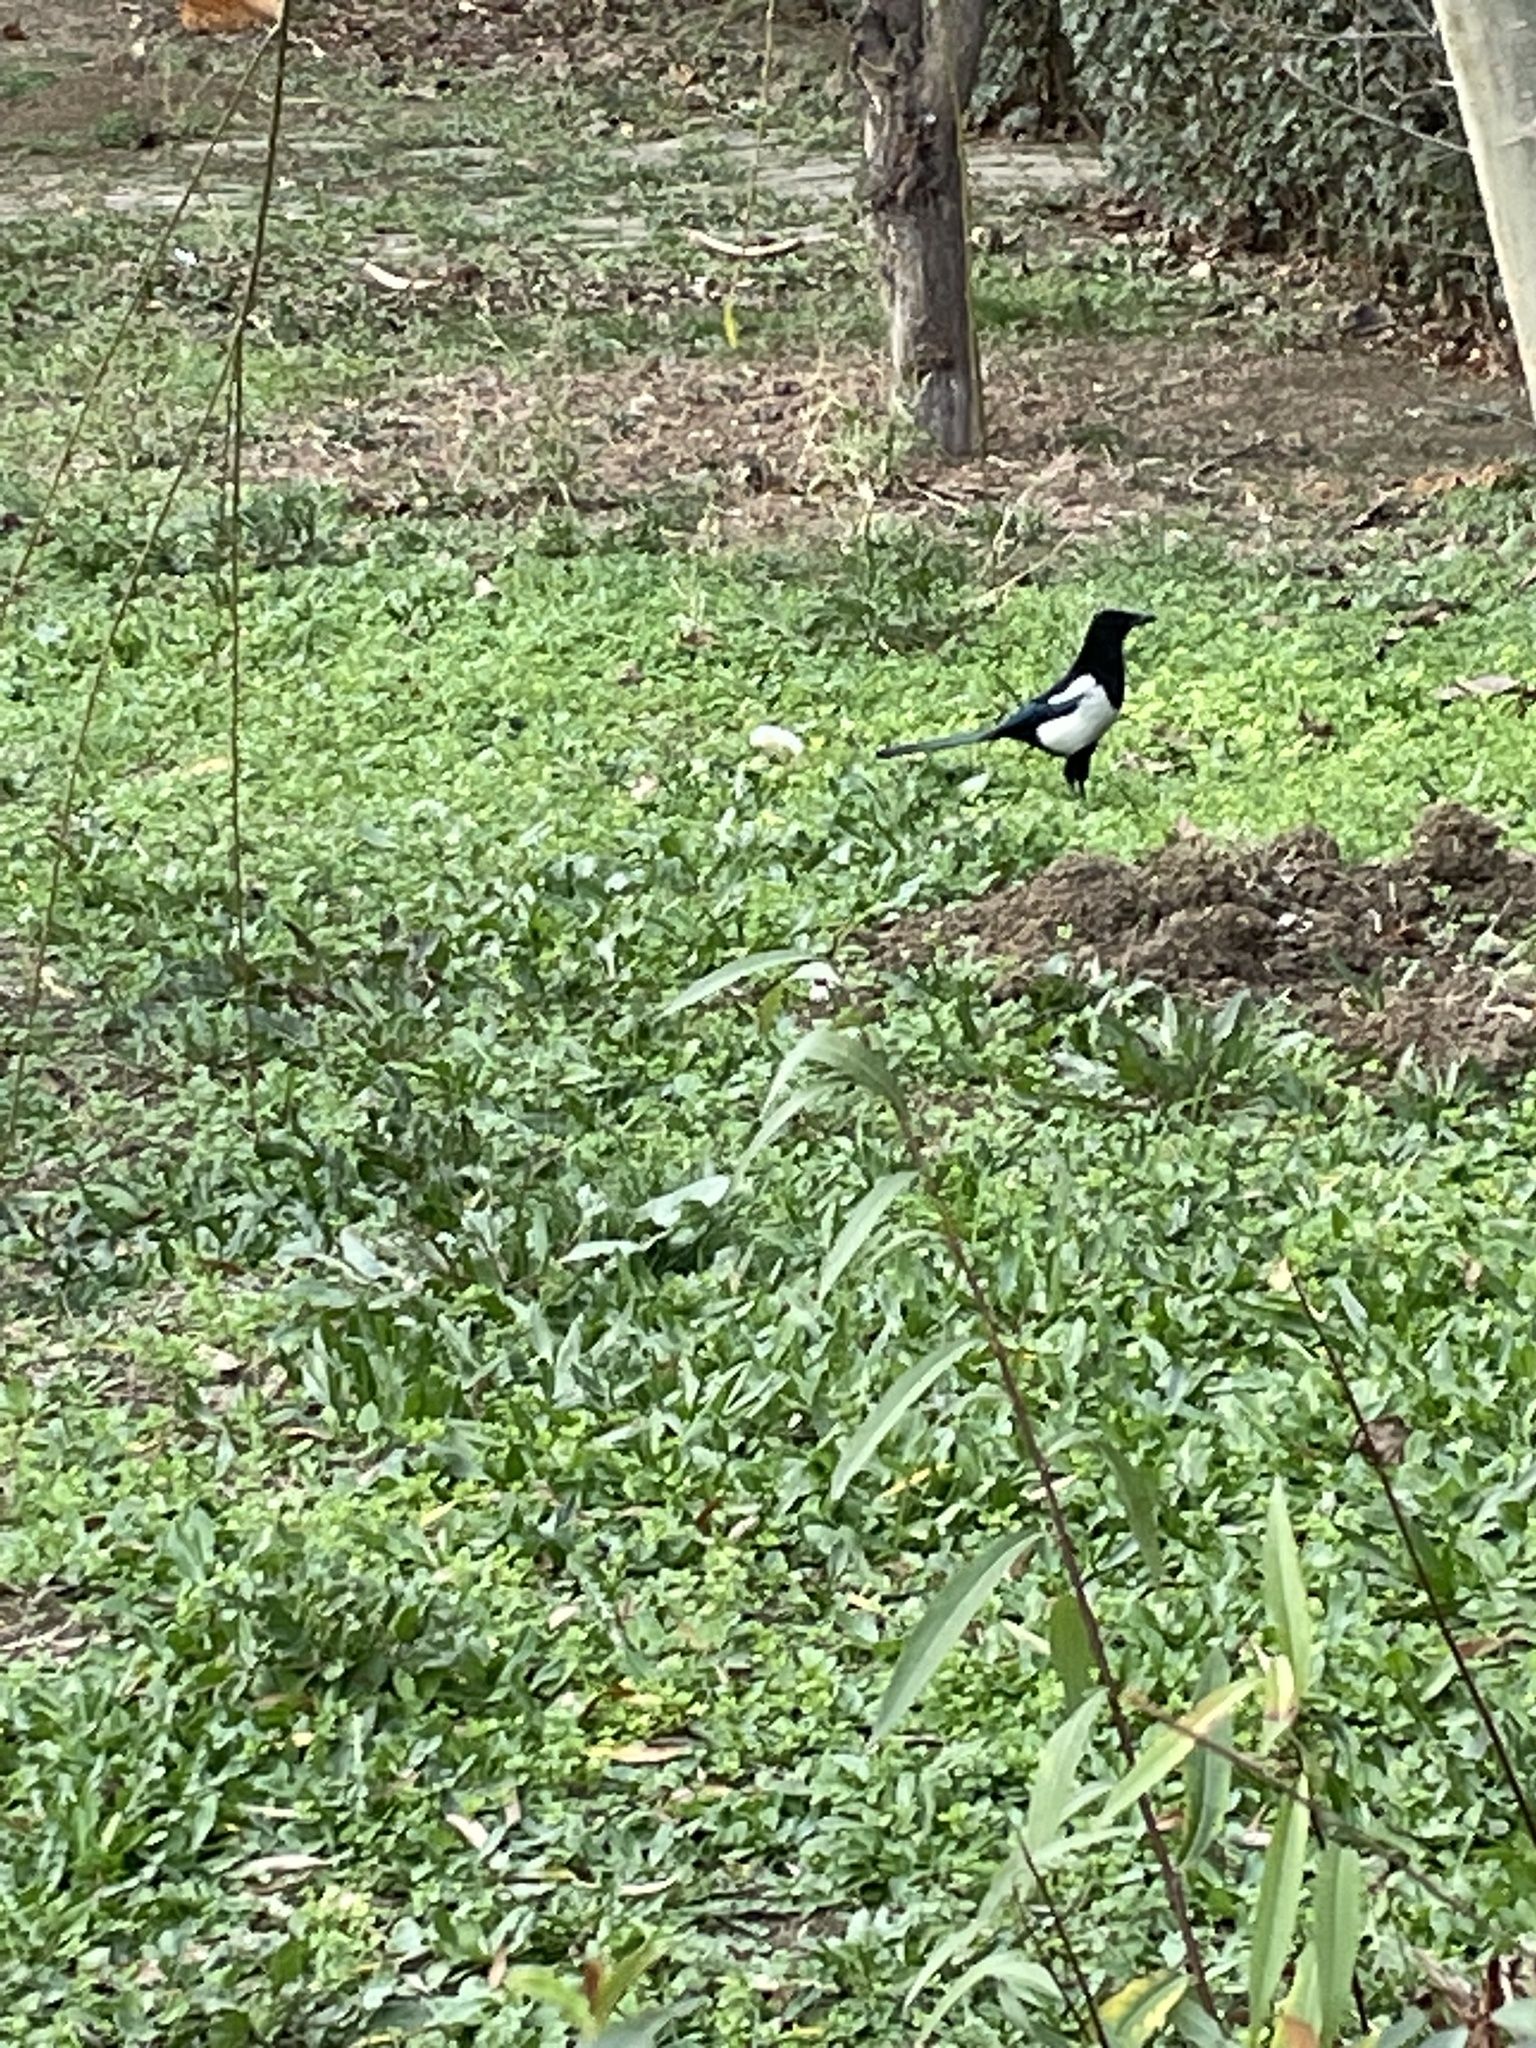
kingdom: Animalia
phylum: Chordata
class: Aves
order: Passeriformes
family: Corvidae
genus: Pica
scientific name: Pica pica
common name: Eurasian magpie
